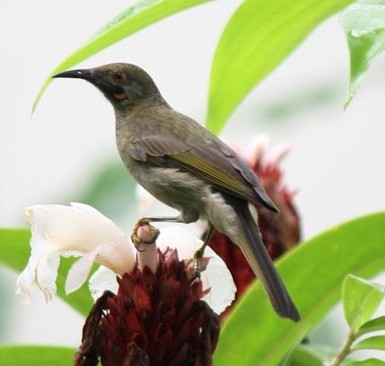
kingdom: Animalia
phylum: Chordata
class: Aves
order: Passeriformes
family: Meliphagidae
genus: Foulehaio
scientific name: Foulehaio procerior
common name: Kikau
